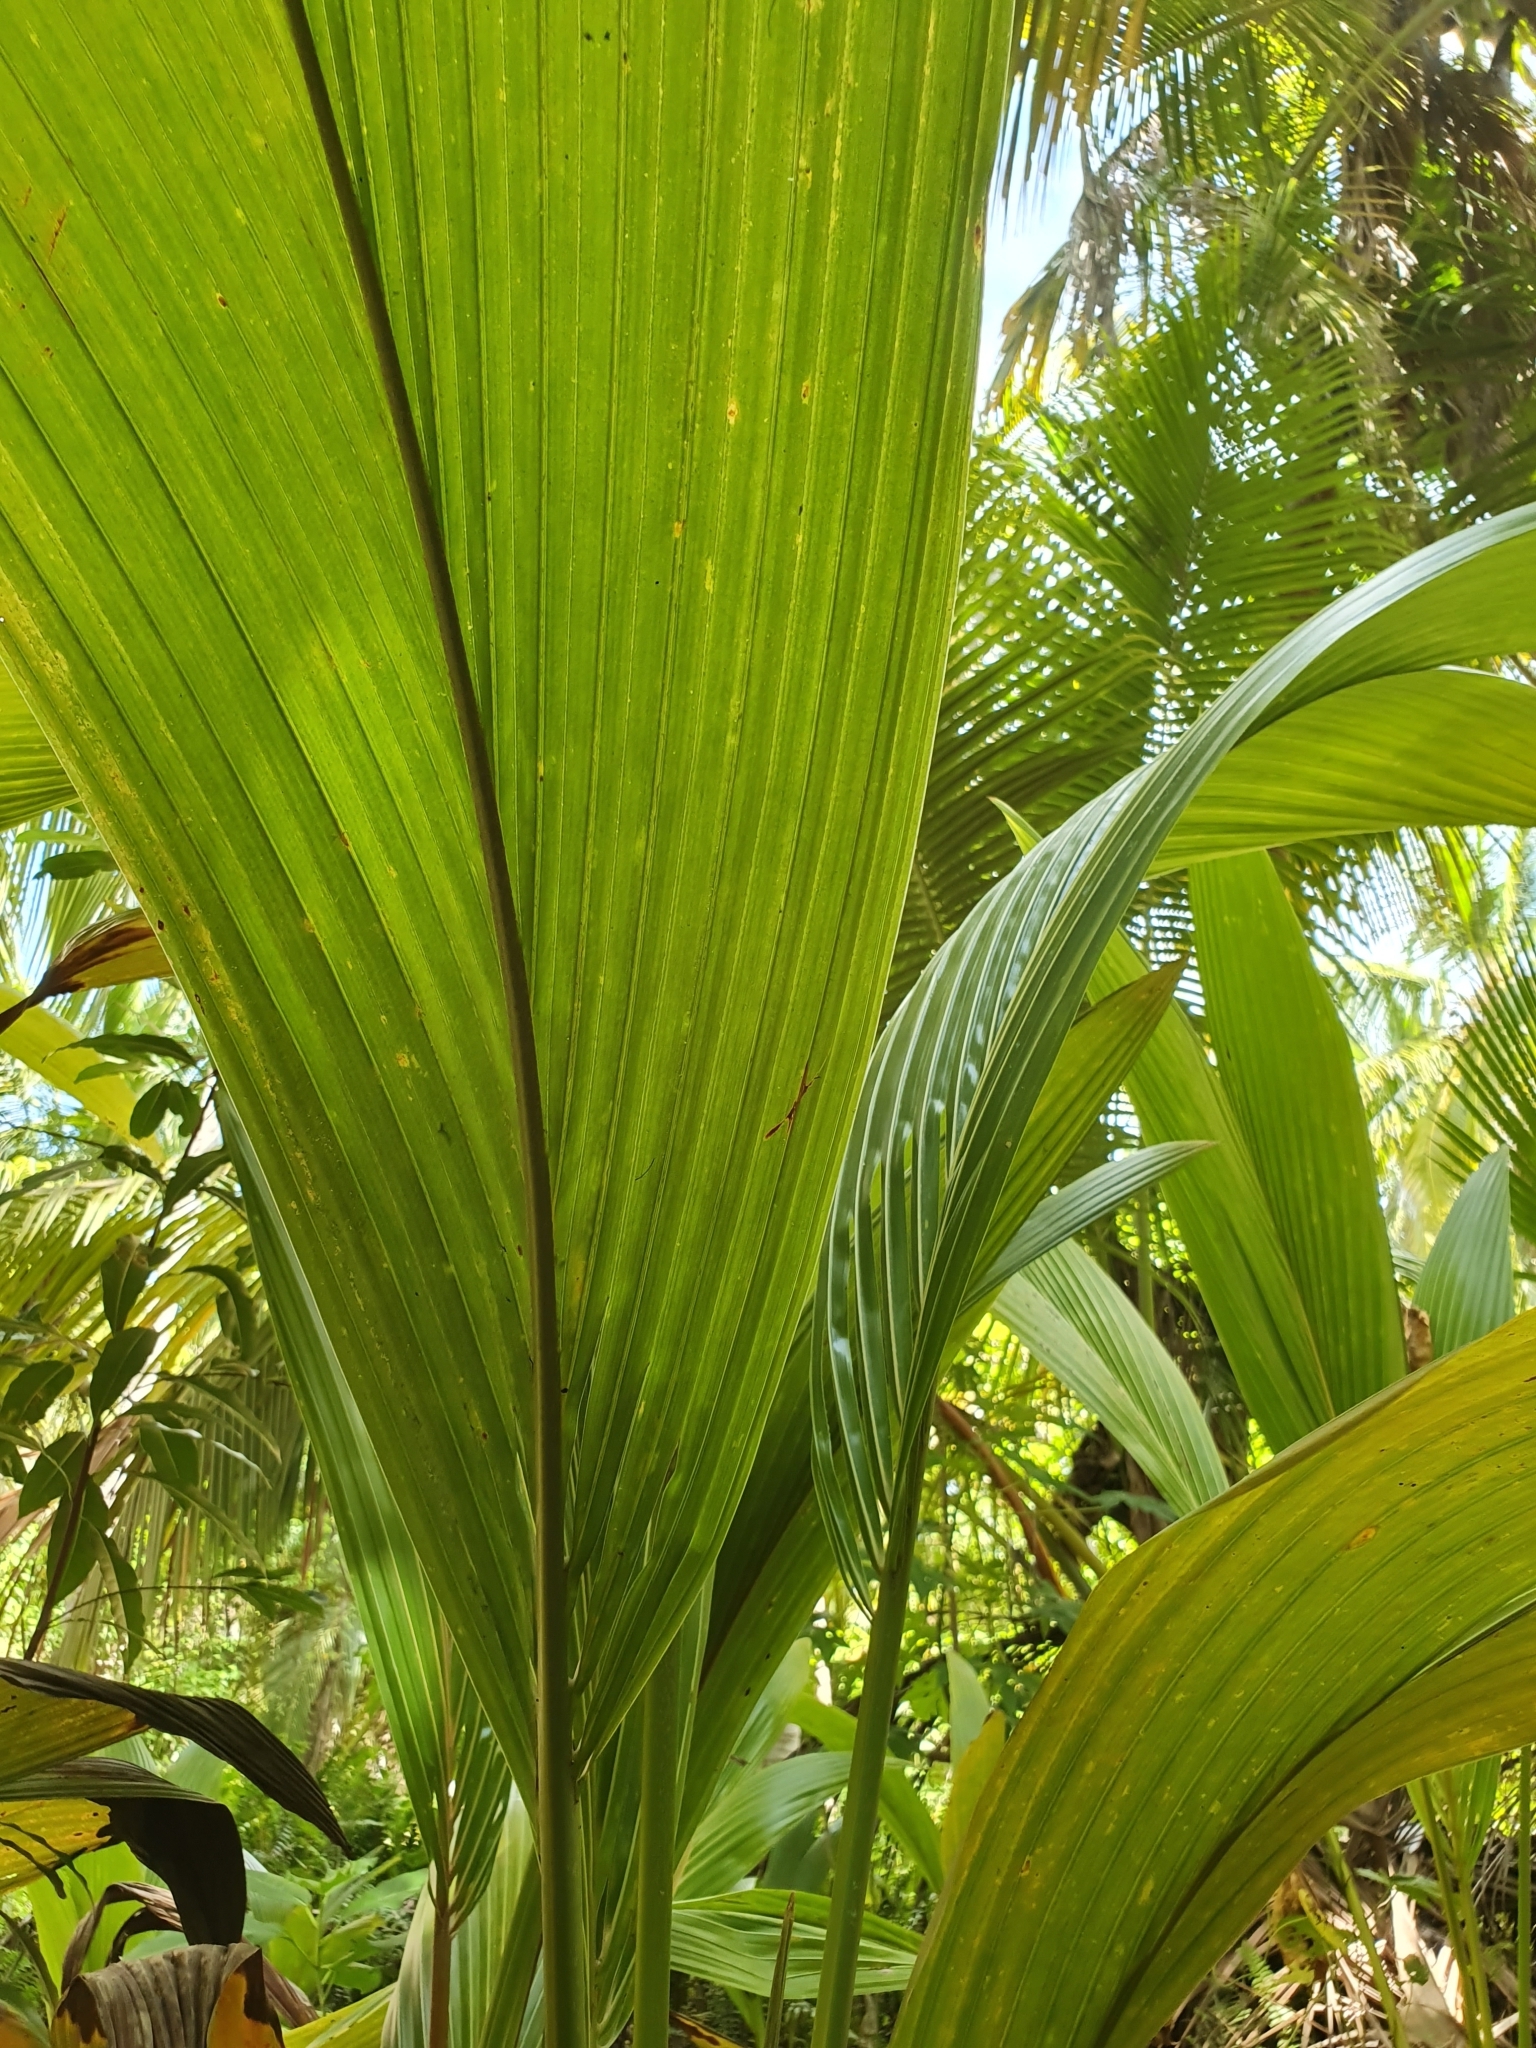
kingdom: Plantae
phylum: Tracheophyta
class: Liliopsida
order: Arecales
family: Arecaceae
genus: Cocos
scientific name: Cocos nucifera
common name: Coconut palm
